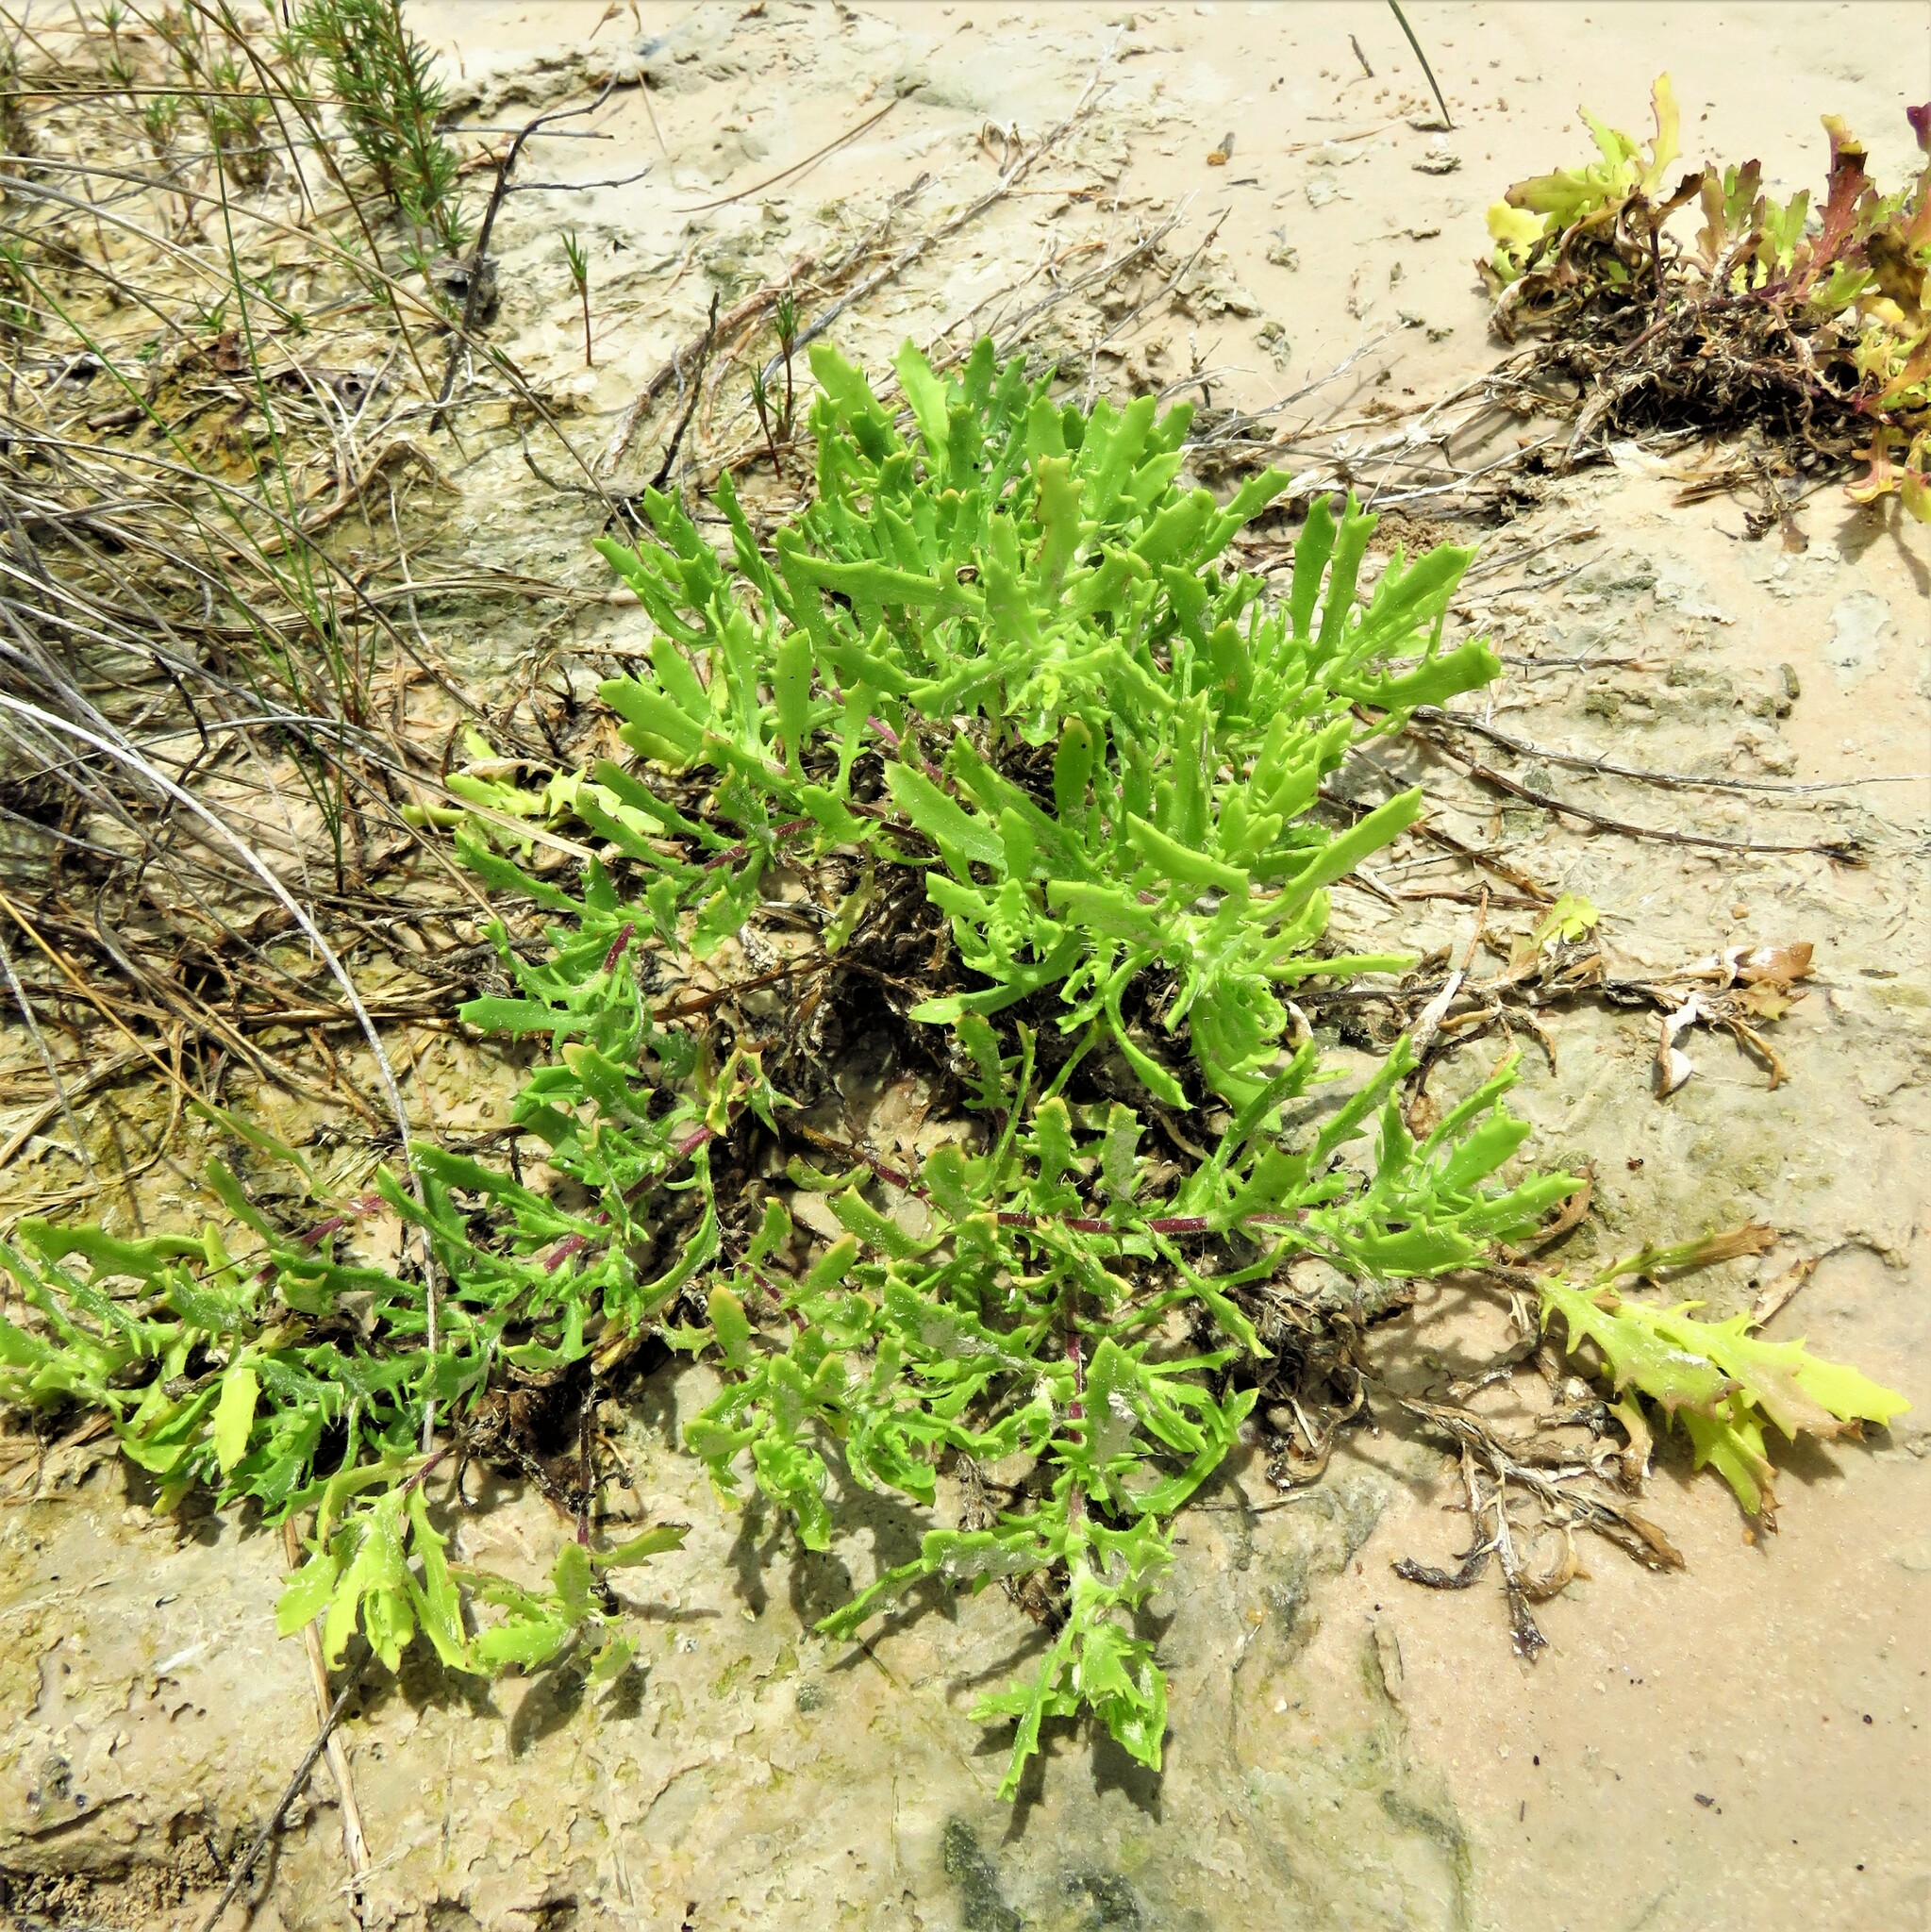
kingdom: Plantae
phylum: Tracheophyta
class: Magnoliopsida
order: Asterales
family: Asteraceae
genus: Rayjacksonia
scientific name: Rayjacksonia phyllocephala
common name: Gulf coast camphor daisy
